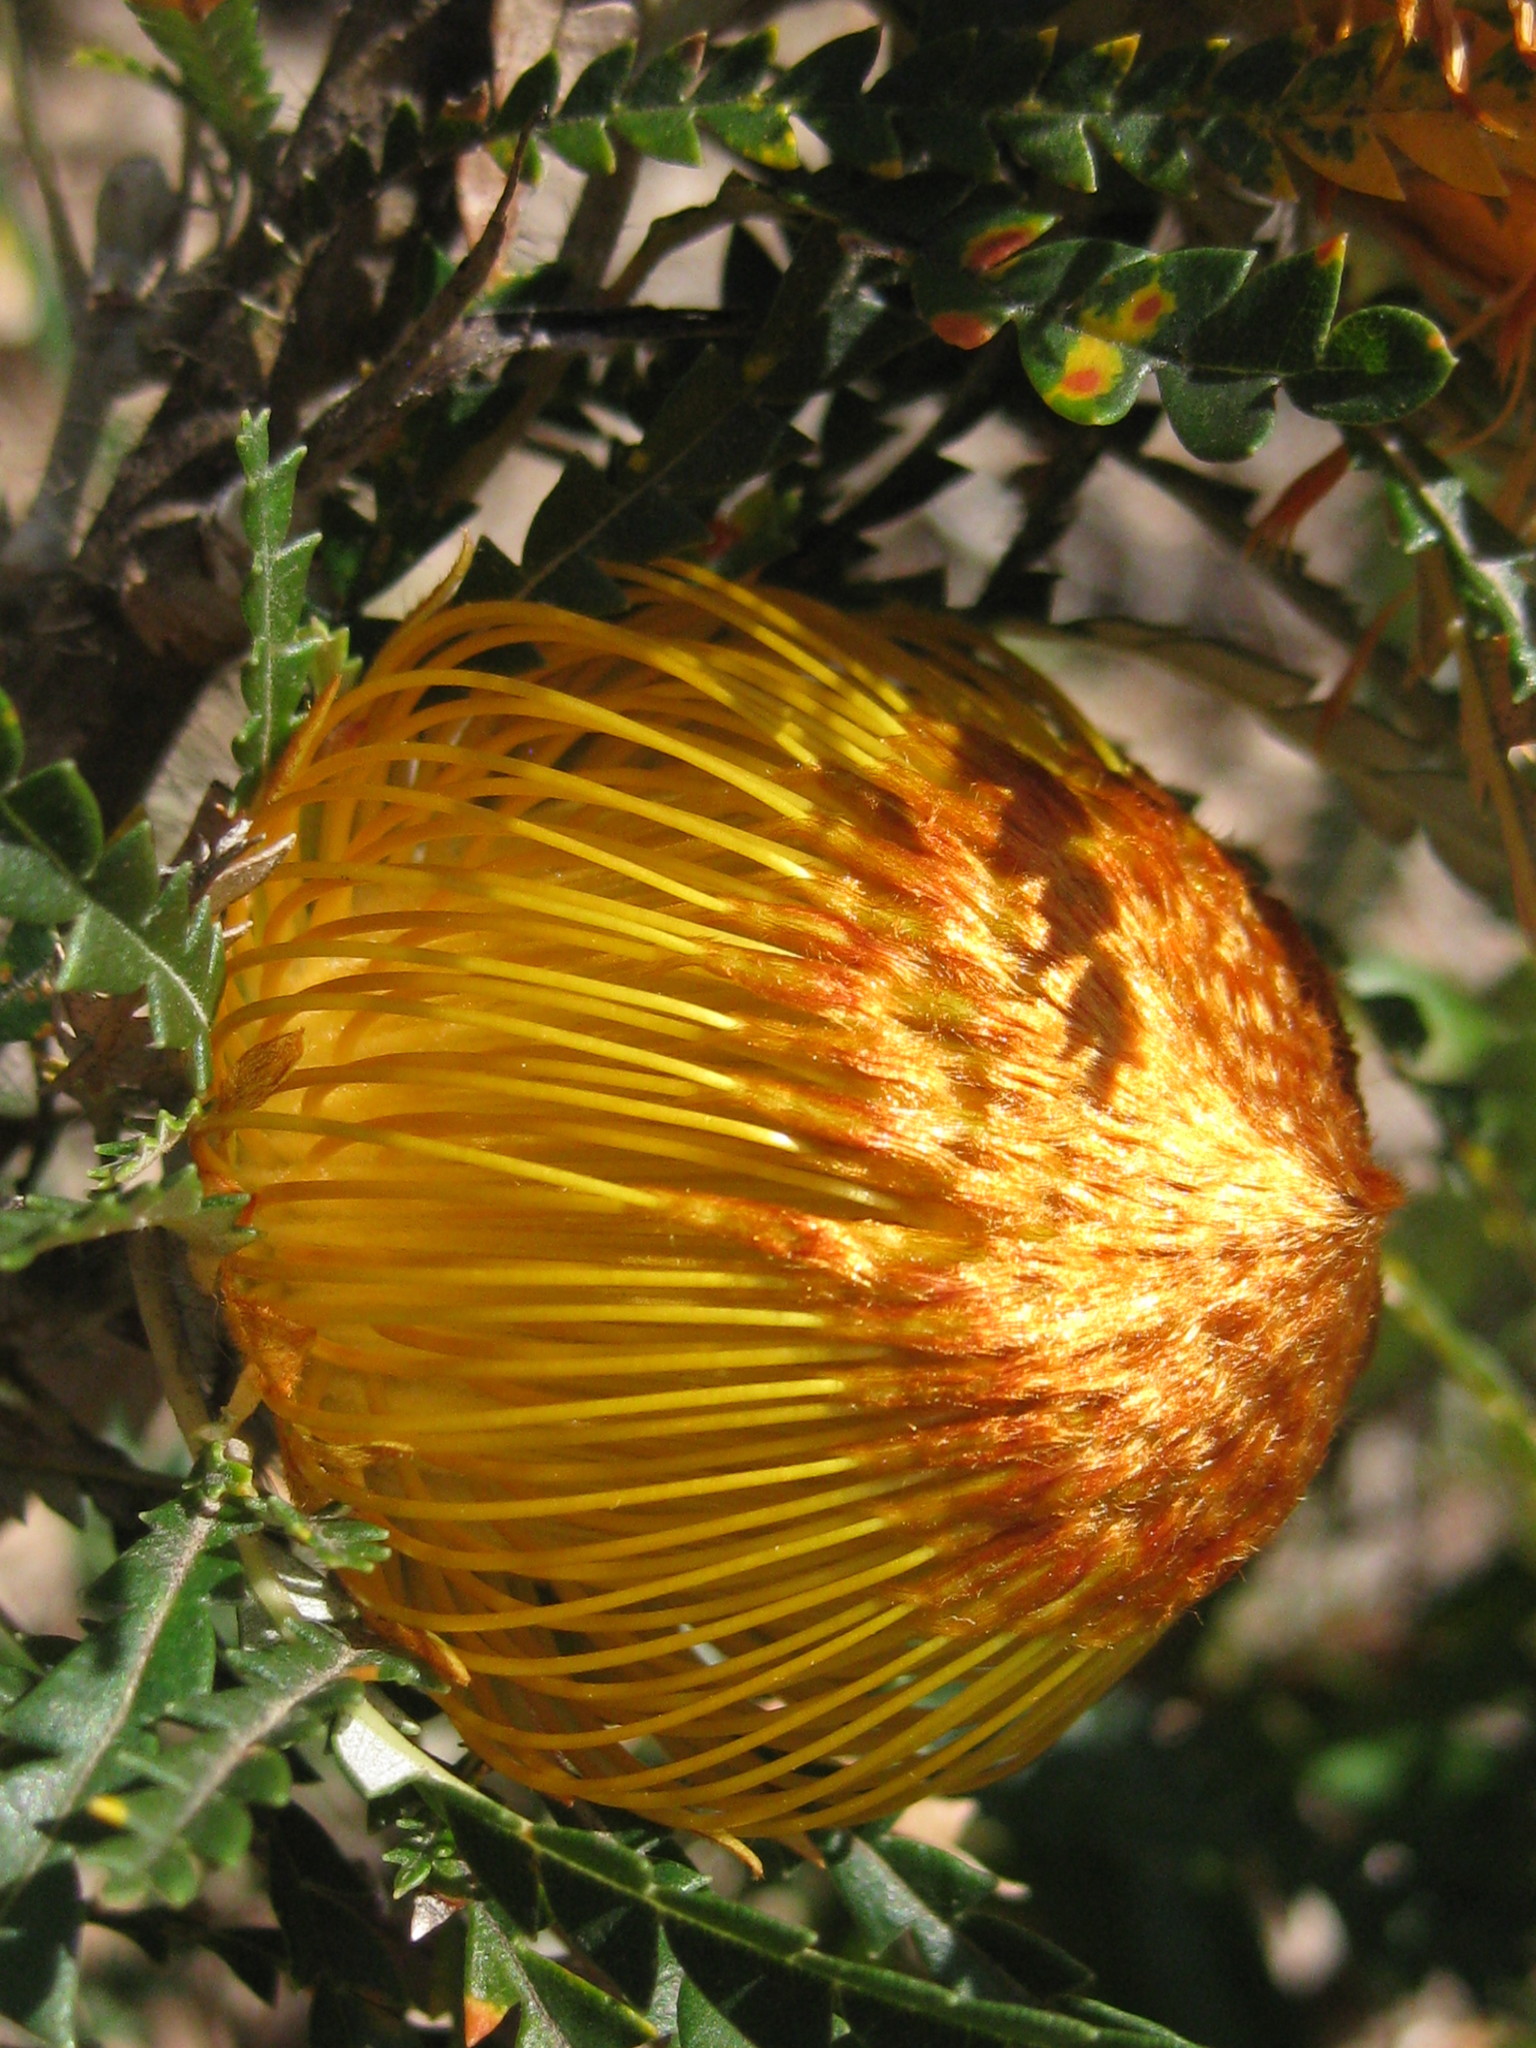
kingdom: Plantae
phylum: Tracheophyta
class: Magnoliopsida
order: Proteales
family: Proteaceae
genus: Banksia
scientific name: Banksia formosa
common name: Showy dryandra
